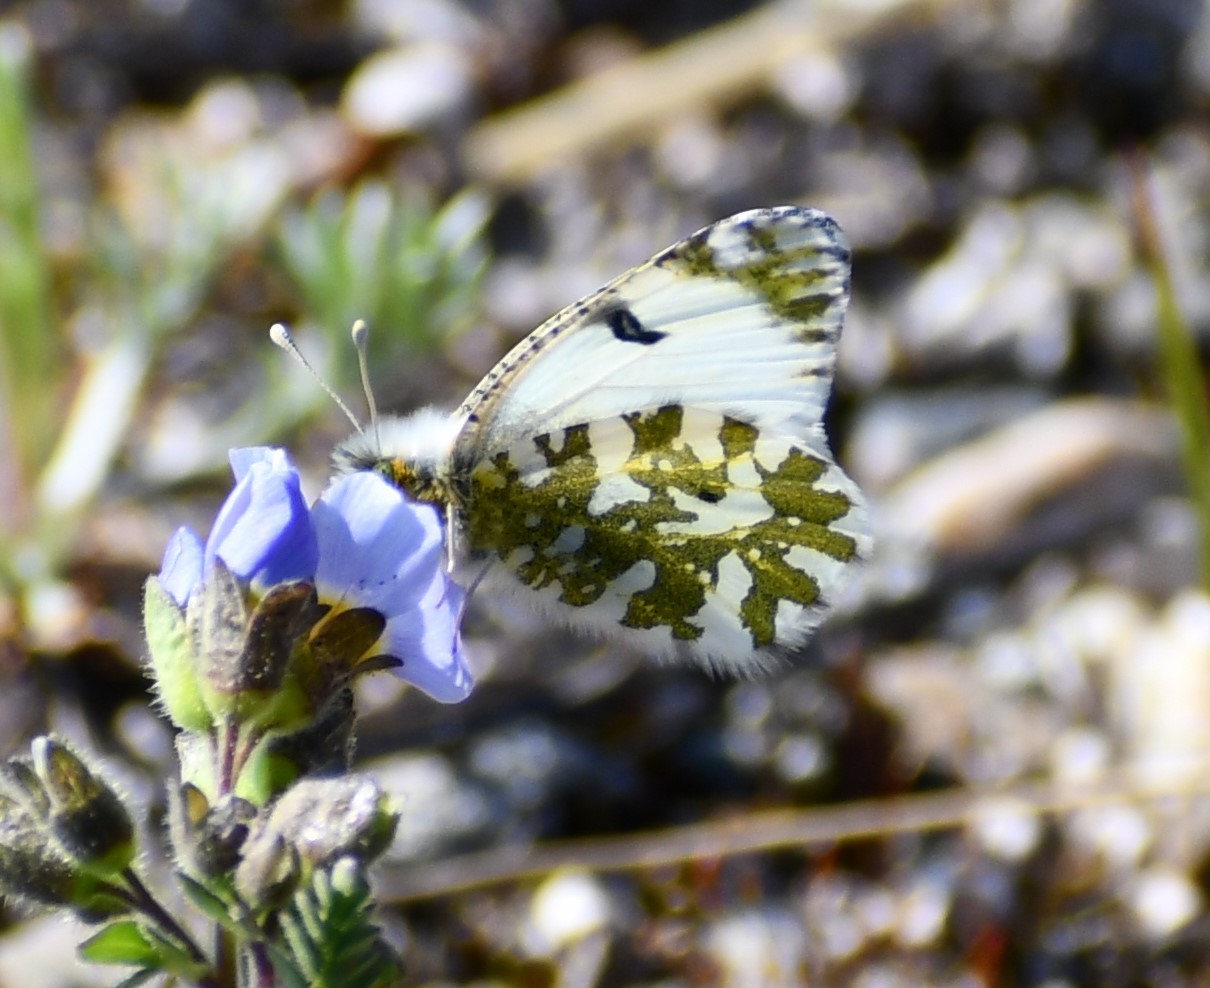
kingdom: Animalia
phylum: Arthropoda
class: Insecta
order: Lepidoptera
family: Pieridae
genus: Euchloe
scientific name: Euchloe ausonides
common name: Creamy marblewing
